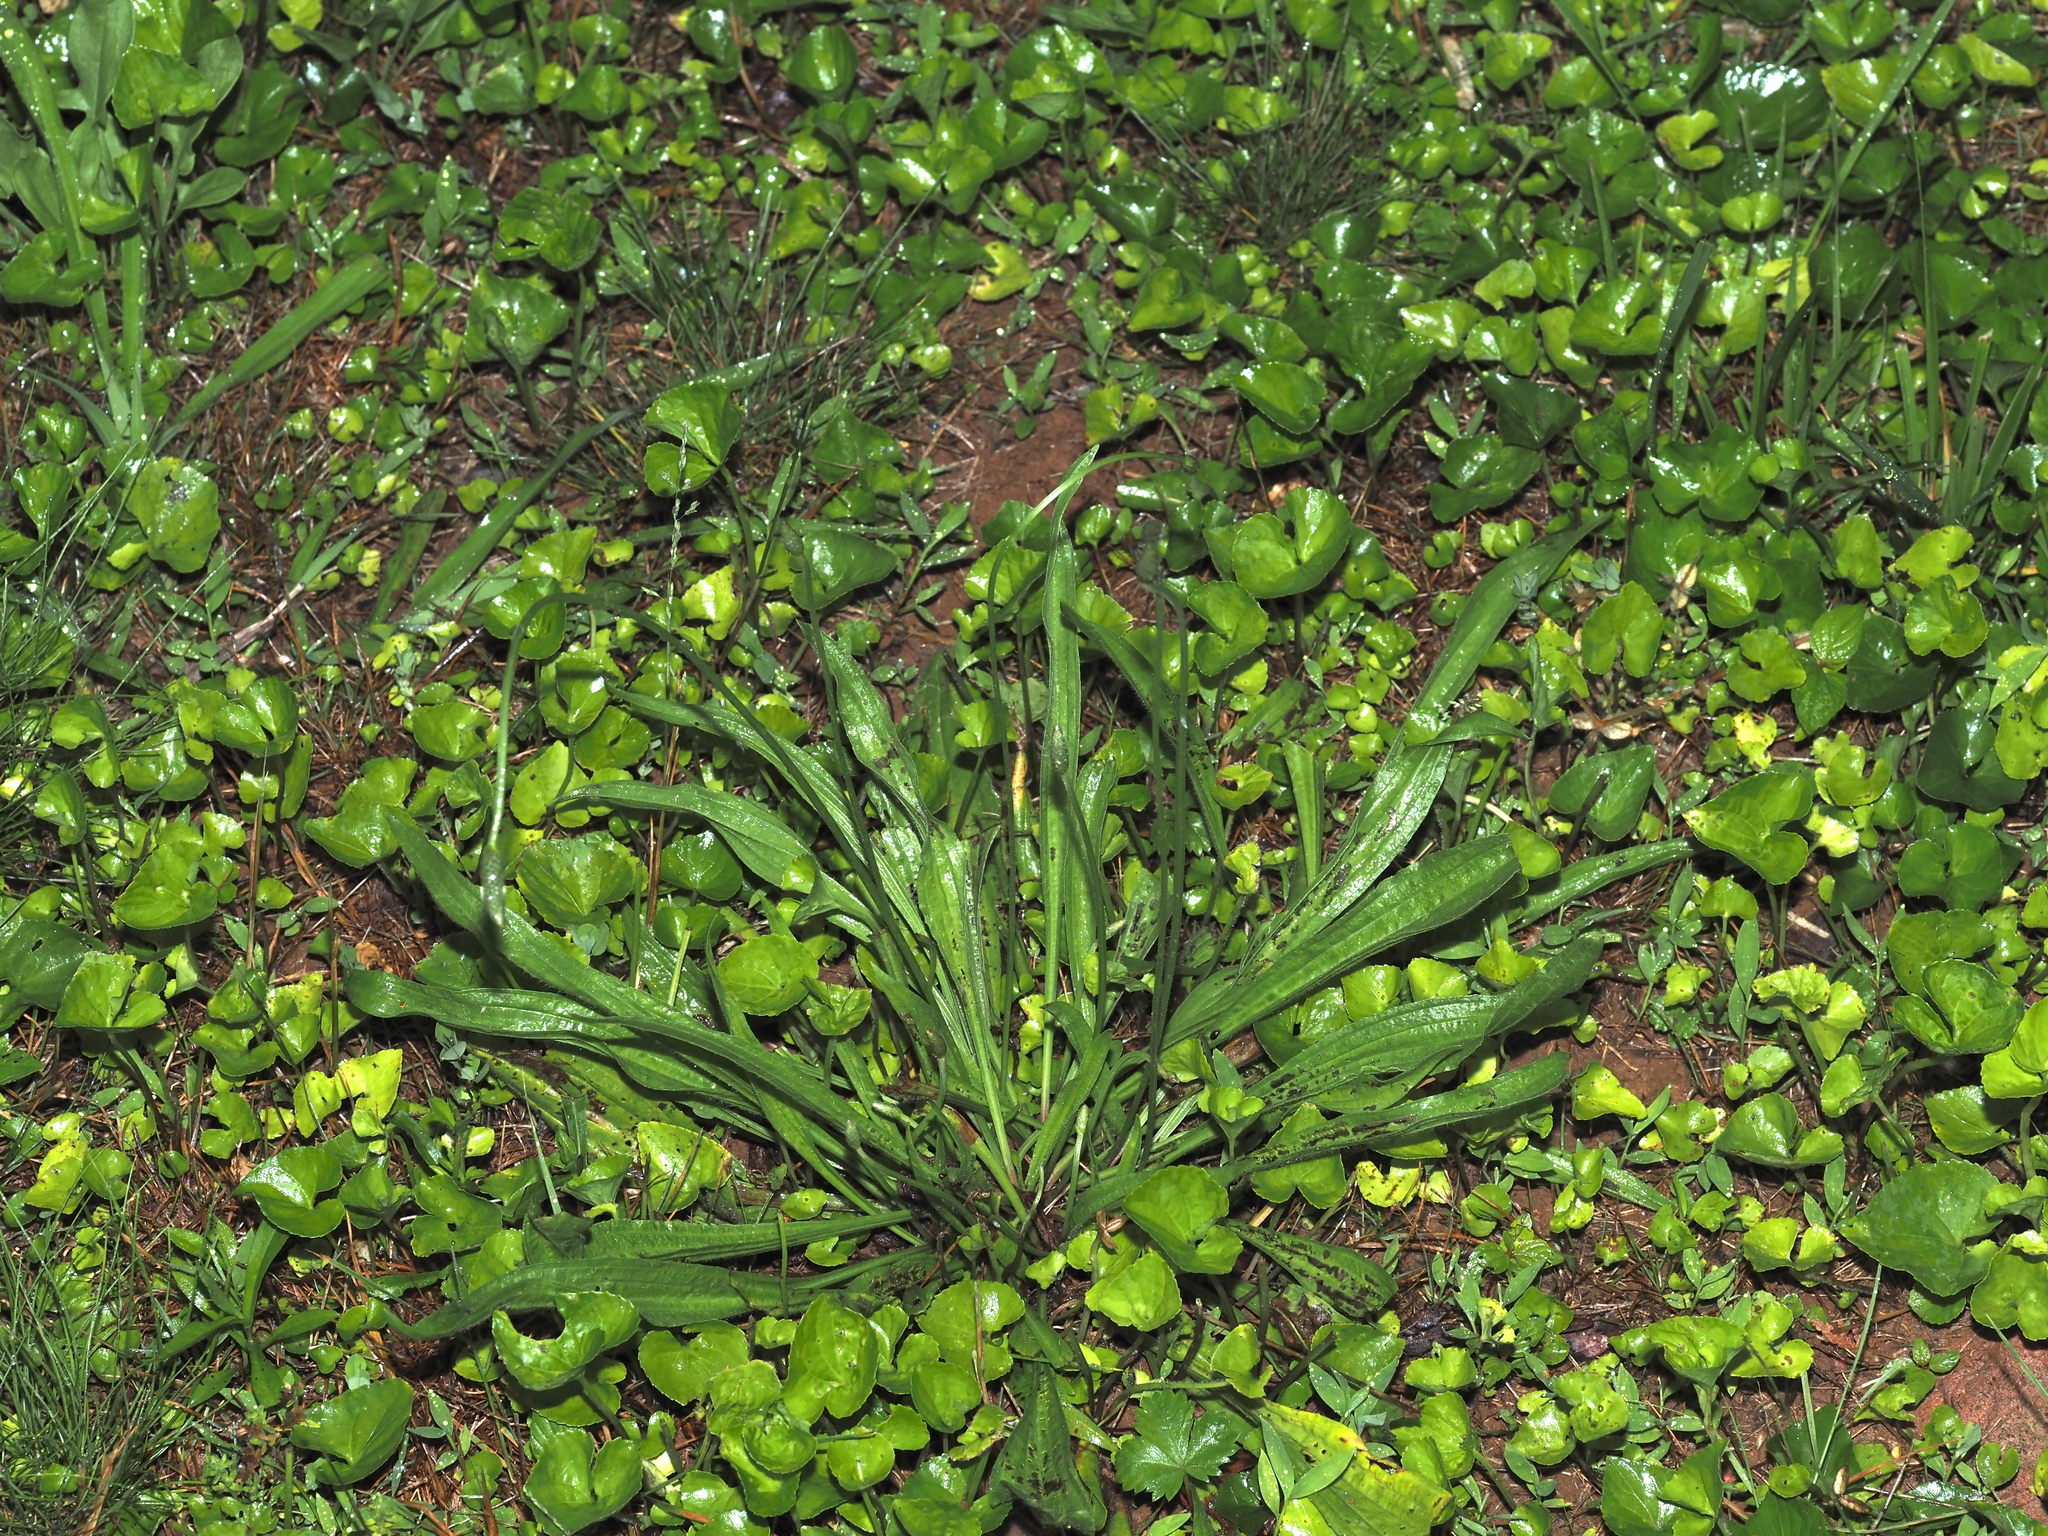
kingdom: Plantae
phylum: Tracheophyta
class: Magnoliopsida
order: Lamiales
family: Plantaginaceae
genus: Plantago
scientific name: Plantago lanceolata
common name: Ribwort plantain
